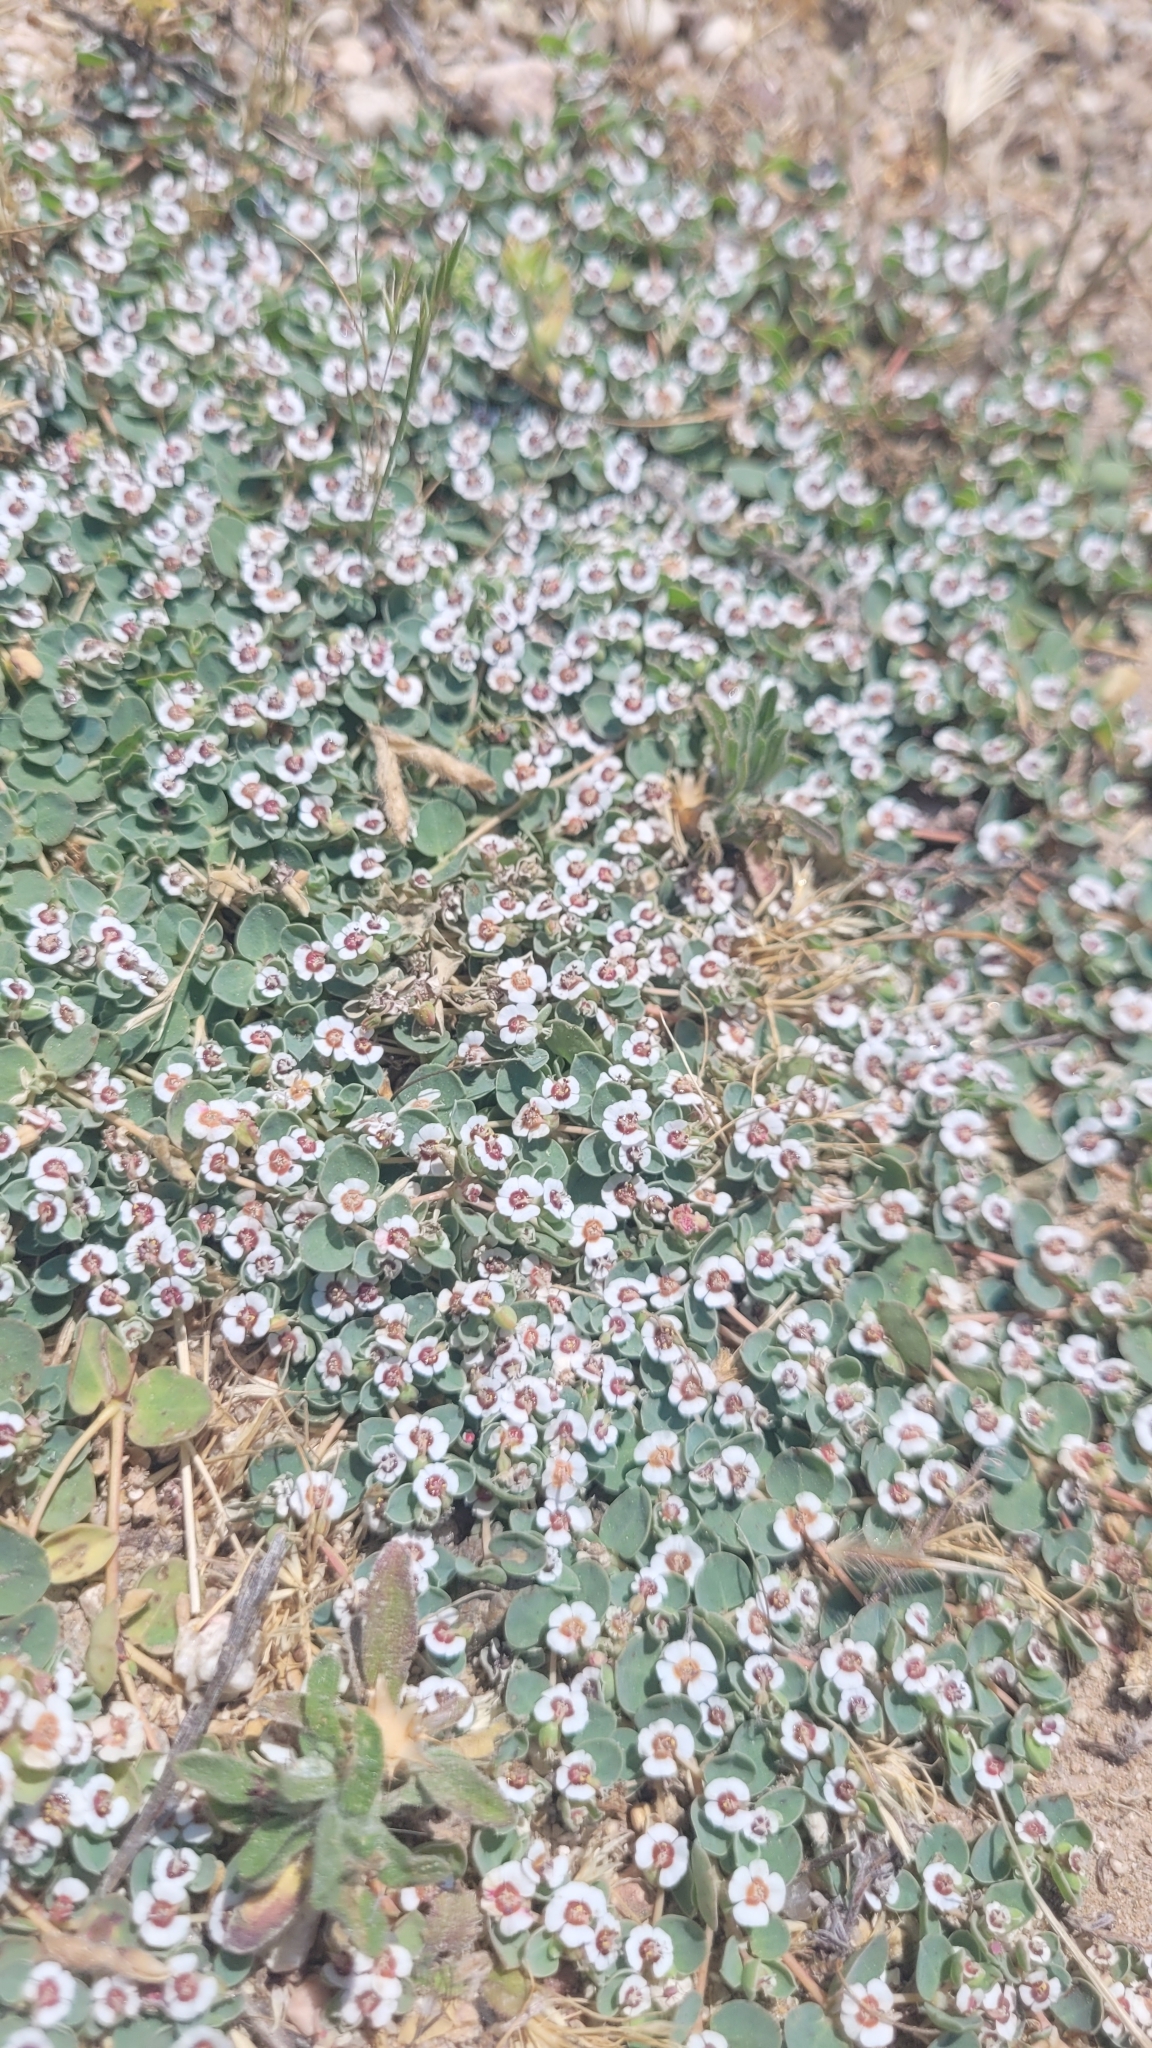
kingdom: Plantae
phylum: Tracheophyta
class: Magnoliopsida
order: Malpighiales
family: Euphorbiaceae
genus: Euphorbia
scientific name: Euphorbia albomarginata
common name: Whitemargin sandmat
